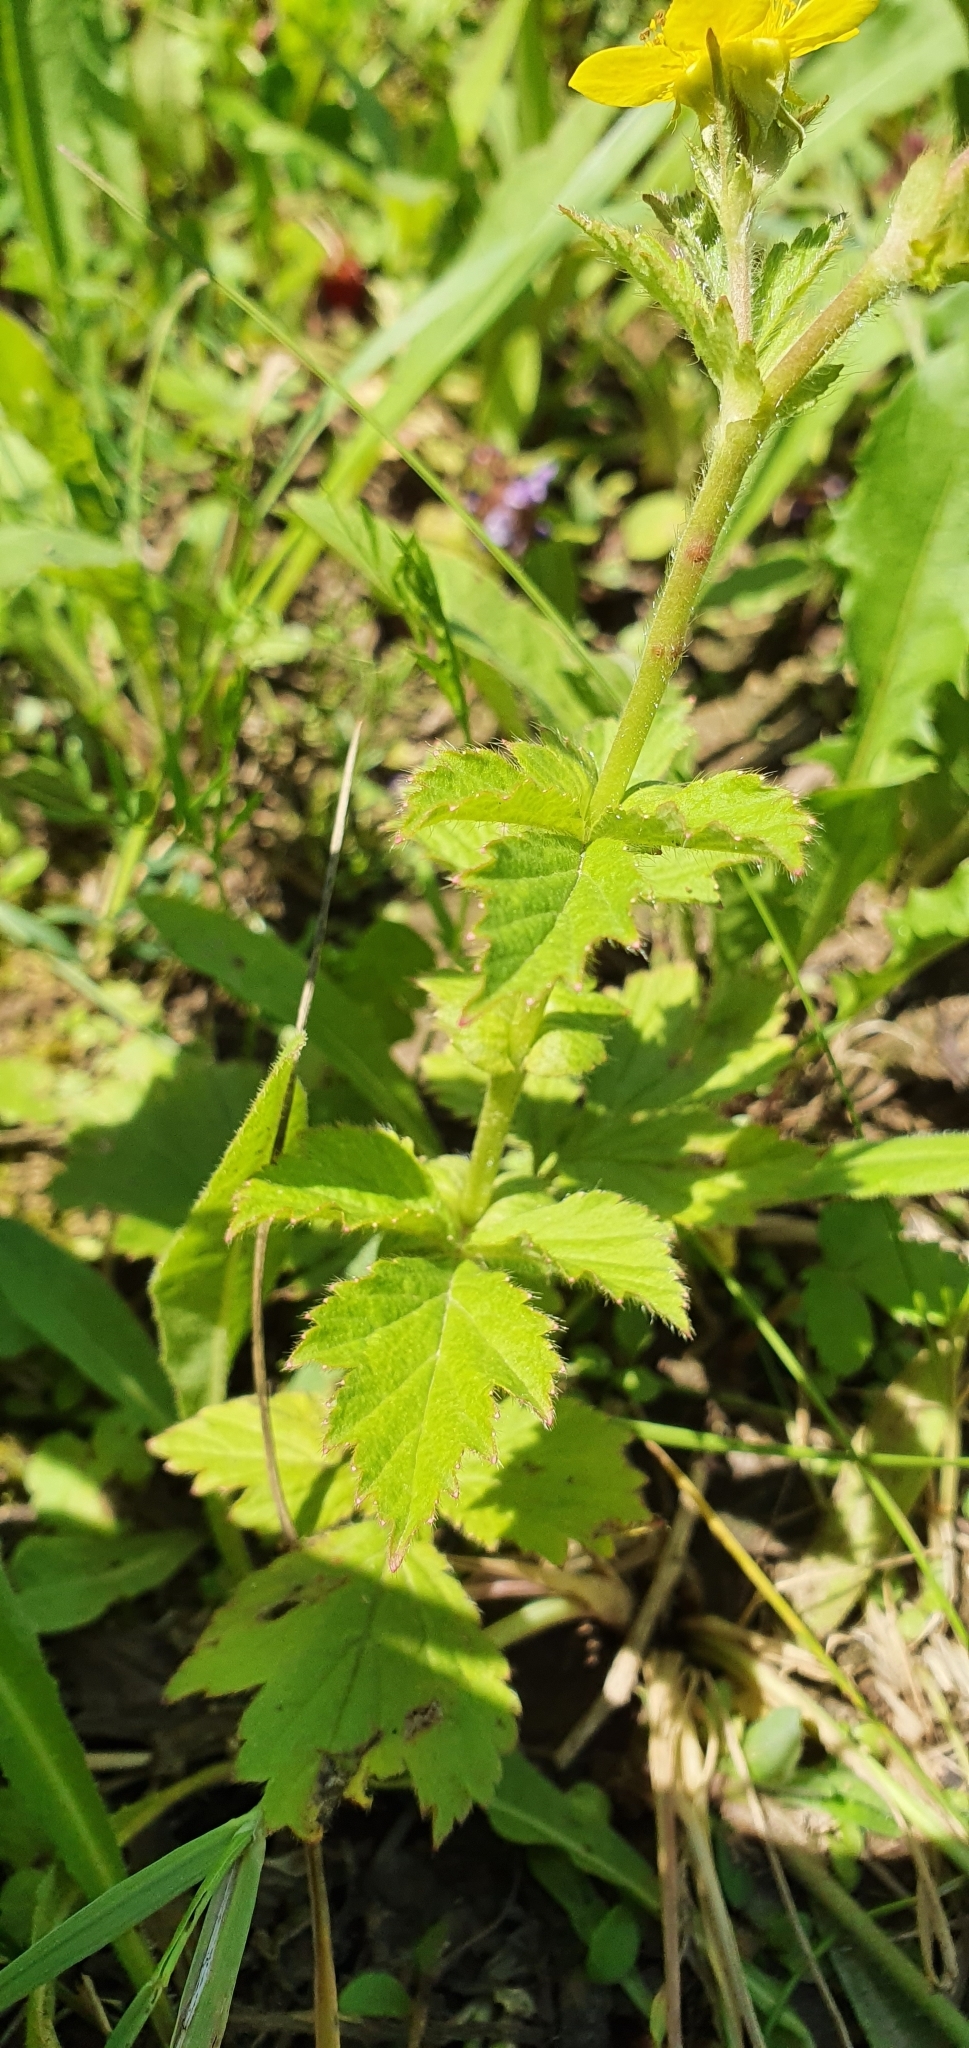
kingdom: Plantae
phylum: Tracheophyta
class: Magnoliopsida
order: Rosales
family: Rosaceae
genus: Geum
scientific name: Geum aleppicum
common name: Yellow avens
